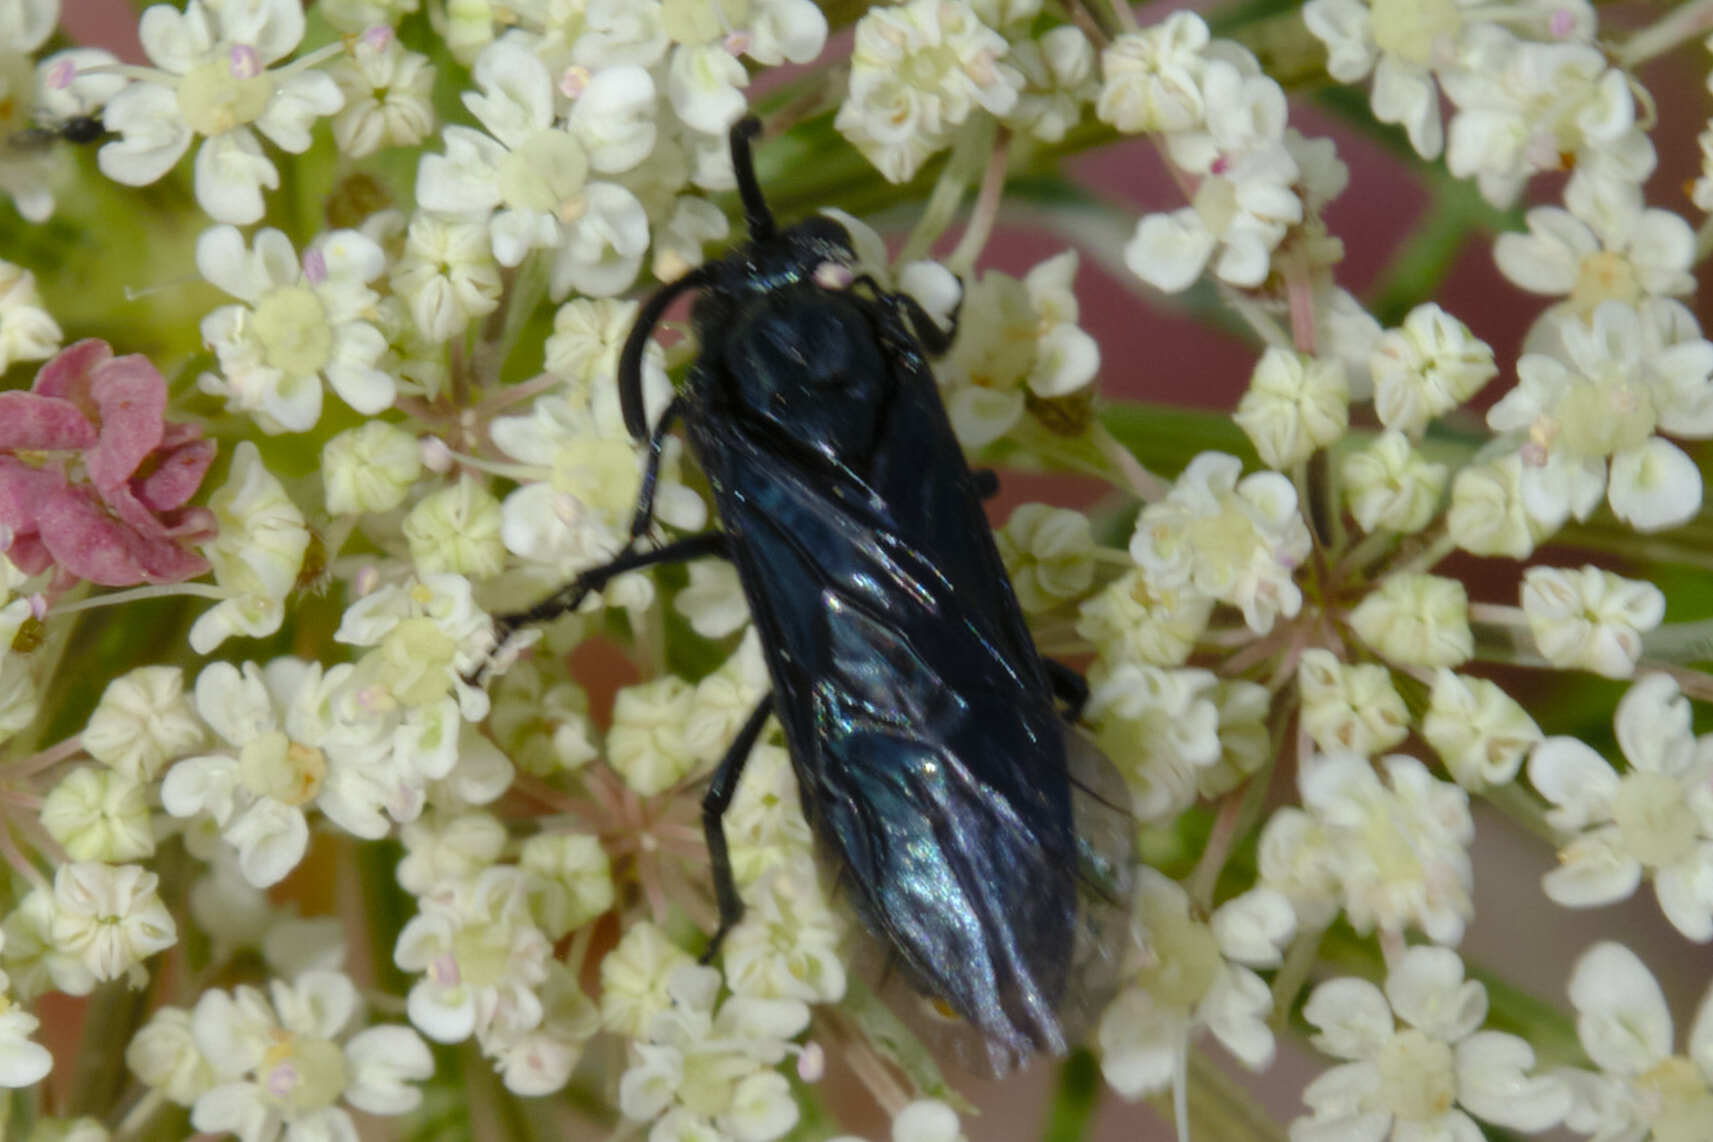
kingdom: Animalia
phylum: Arthropoda
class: Insecta
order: Hymenoptera
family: Argidae
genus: Arge
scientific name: Arge berberidis
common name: Berberis sawfly
